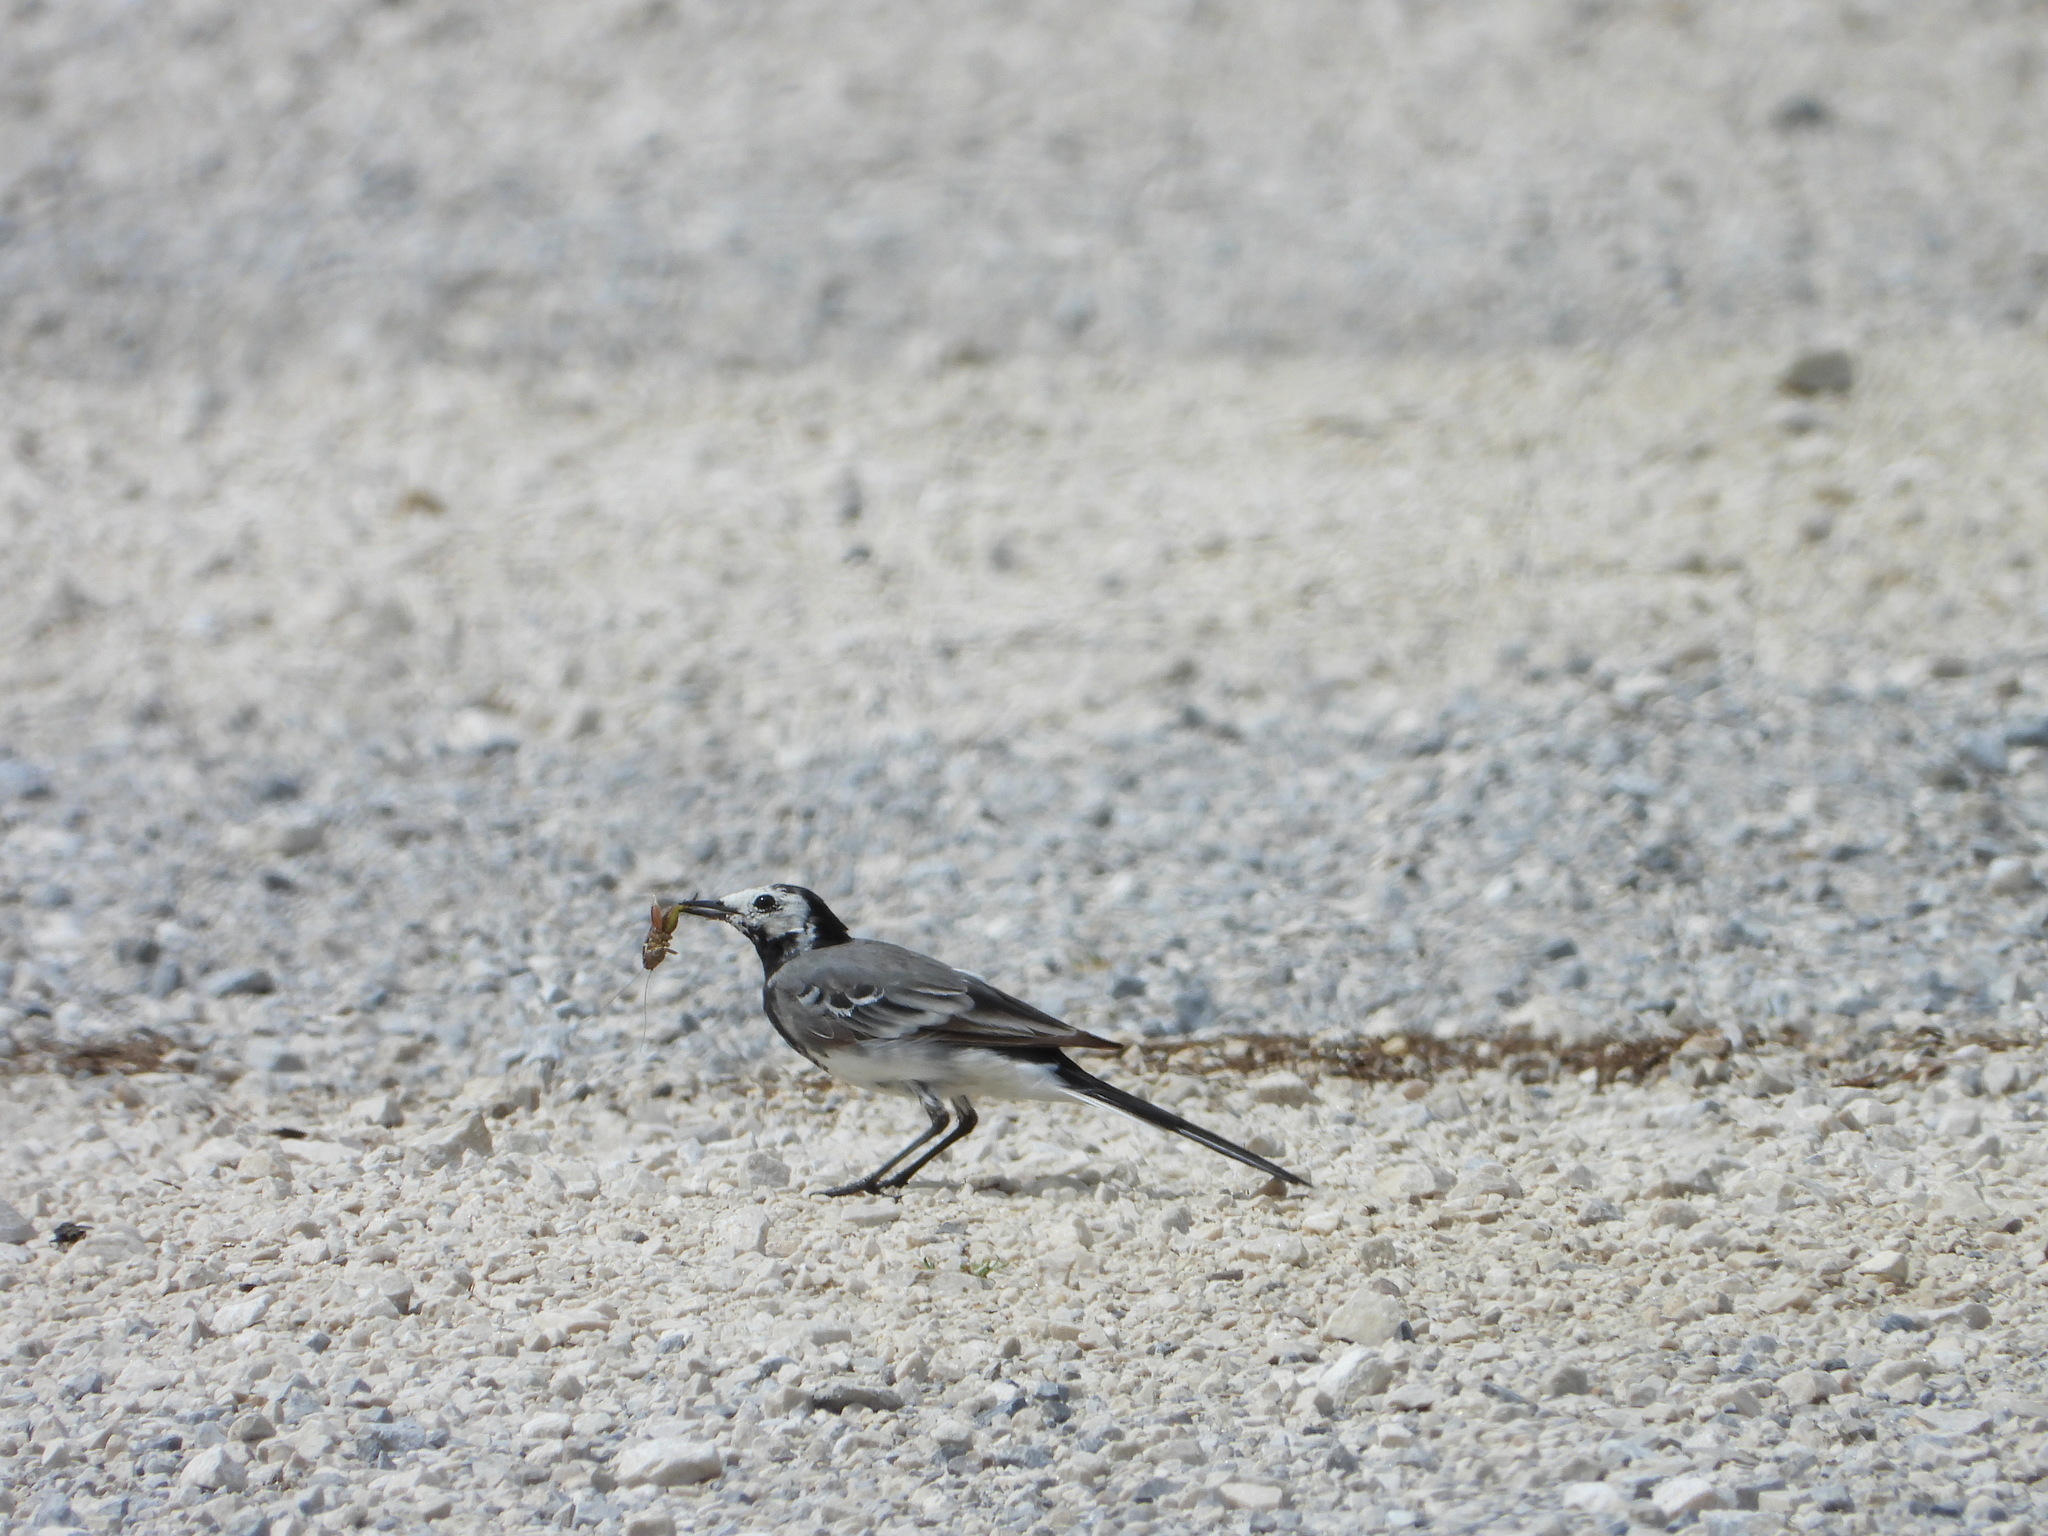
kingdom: Animalia
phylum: Chordata
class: Aves
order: Passeriformes
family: Motacillidae
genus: Motacilla
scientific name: Motacilla alba
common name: White wagtail
